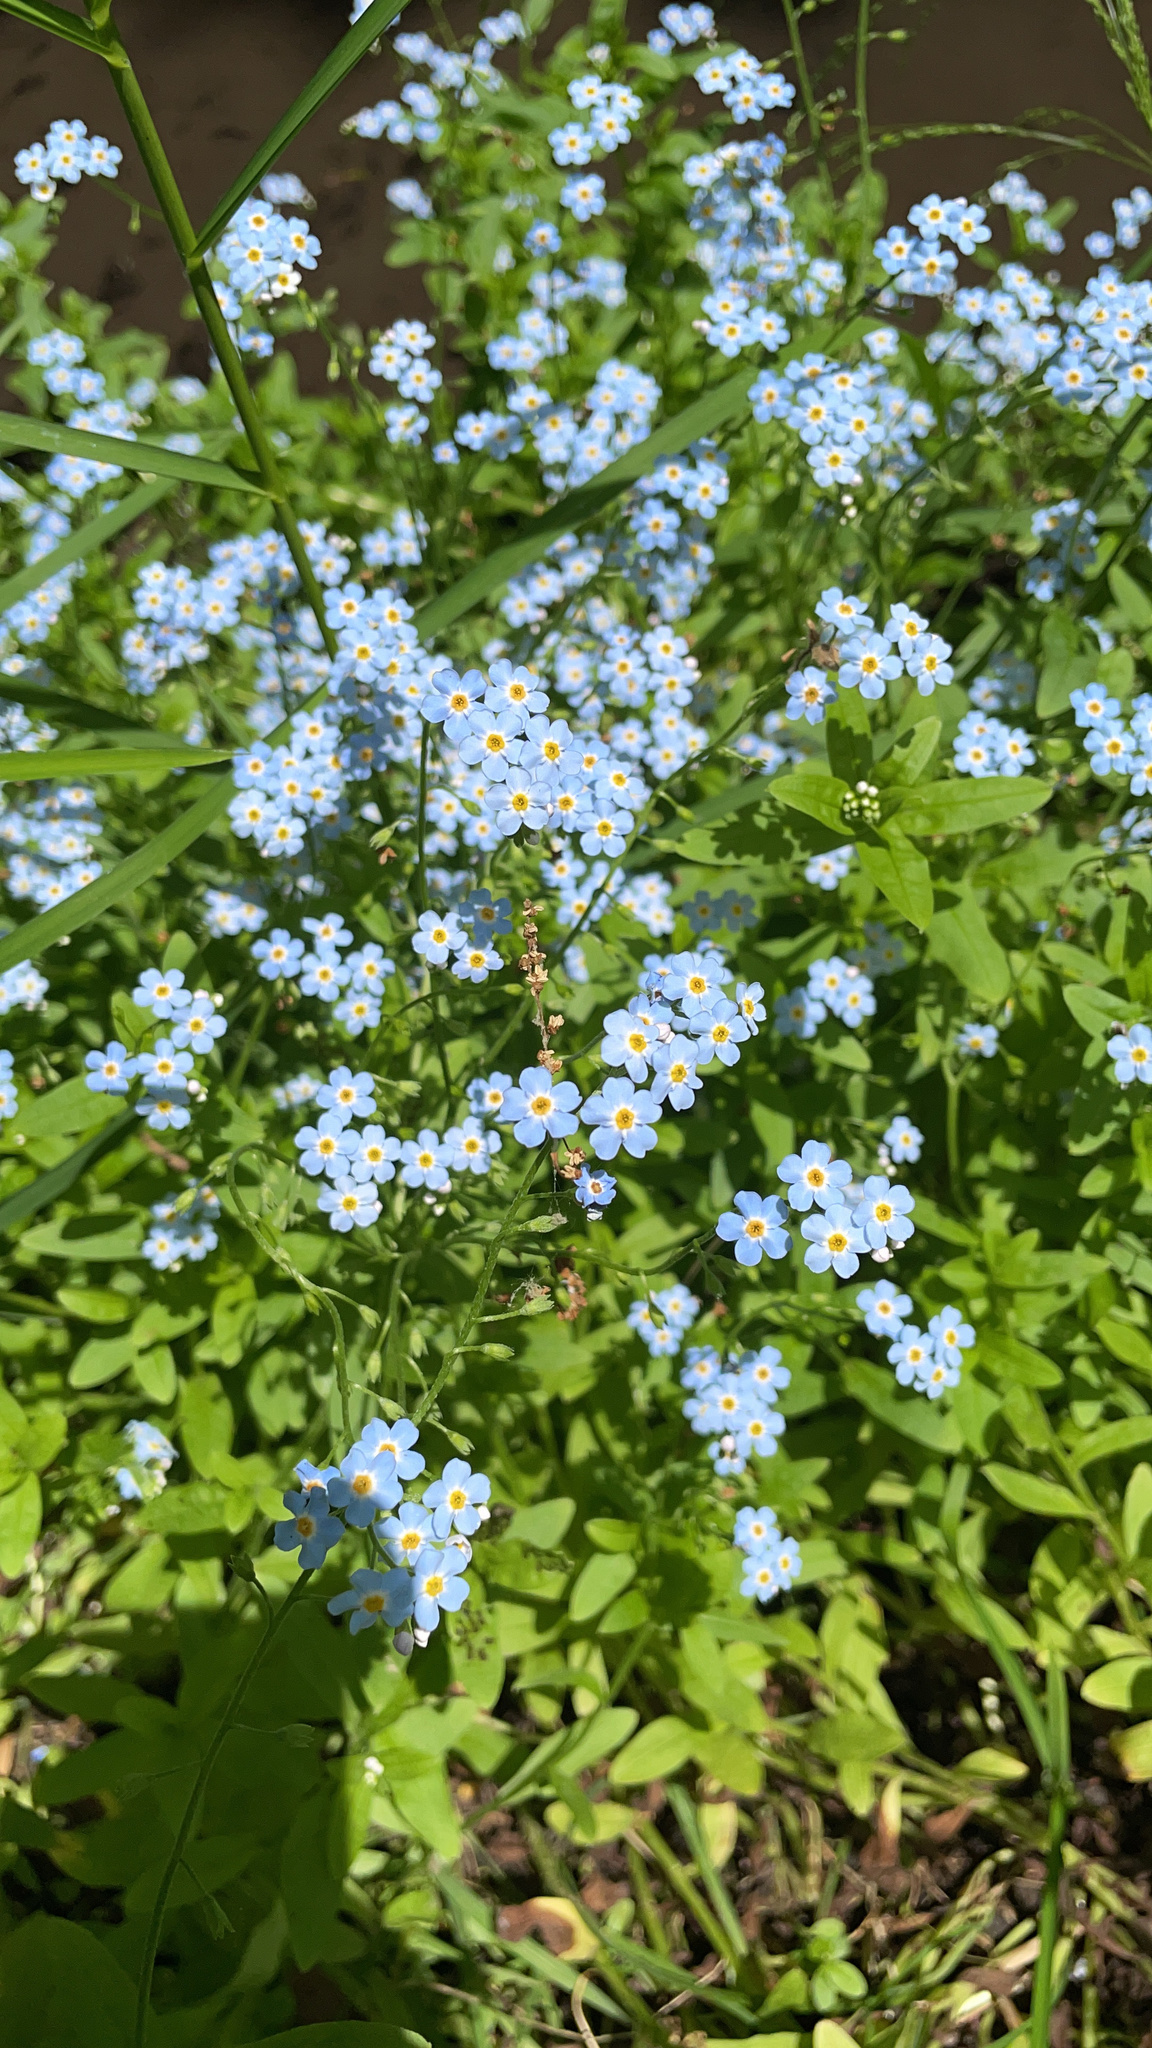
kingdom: Plantae
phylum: Tracheophyta
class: Magnoliopsida
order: Boraginales
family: Boraginaceae
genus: Myosotis
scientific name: Myosotis scorpioides
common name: Water forget-me-not
